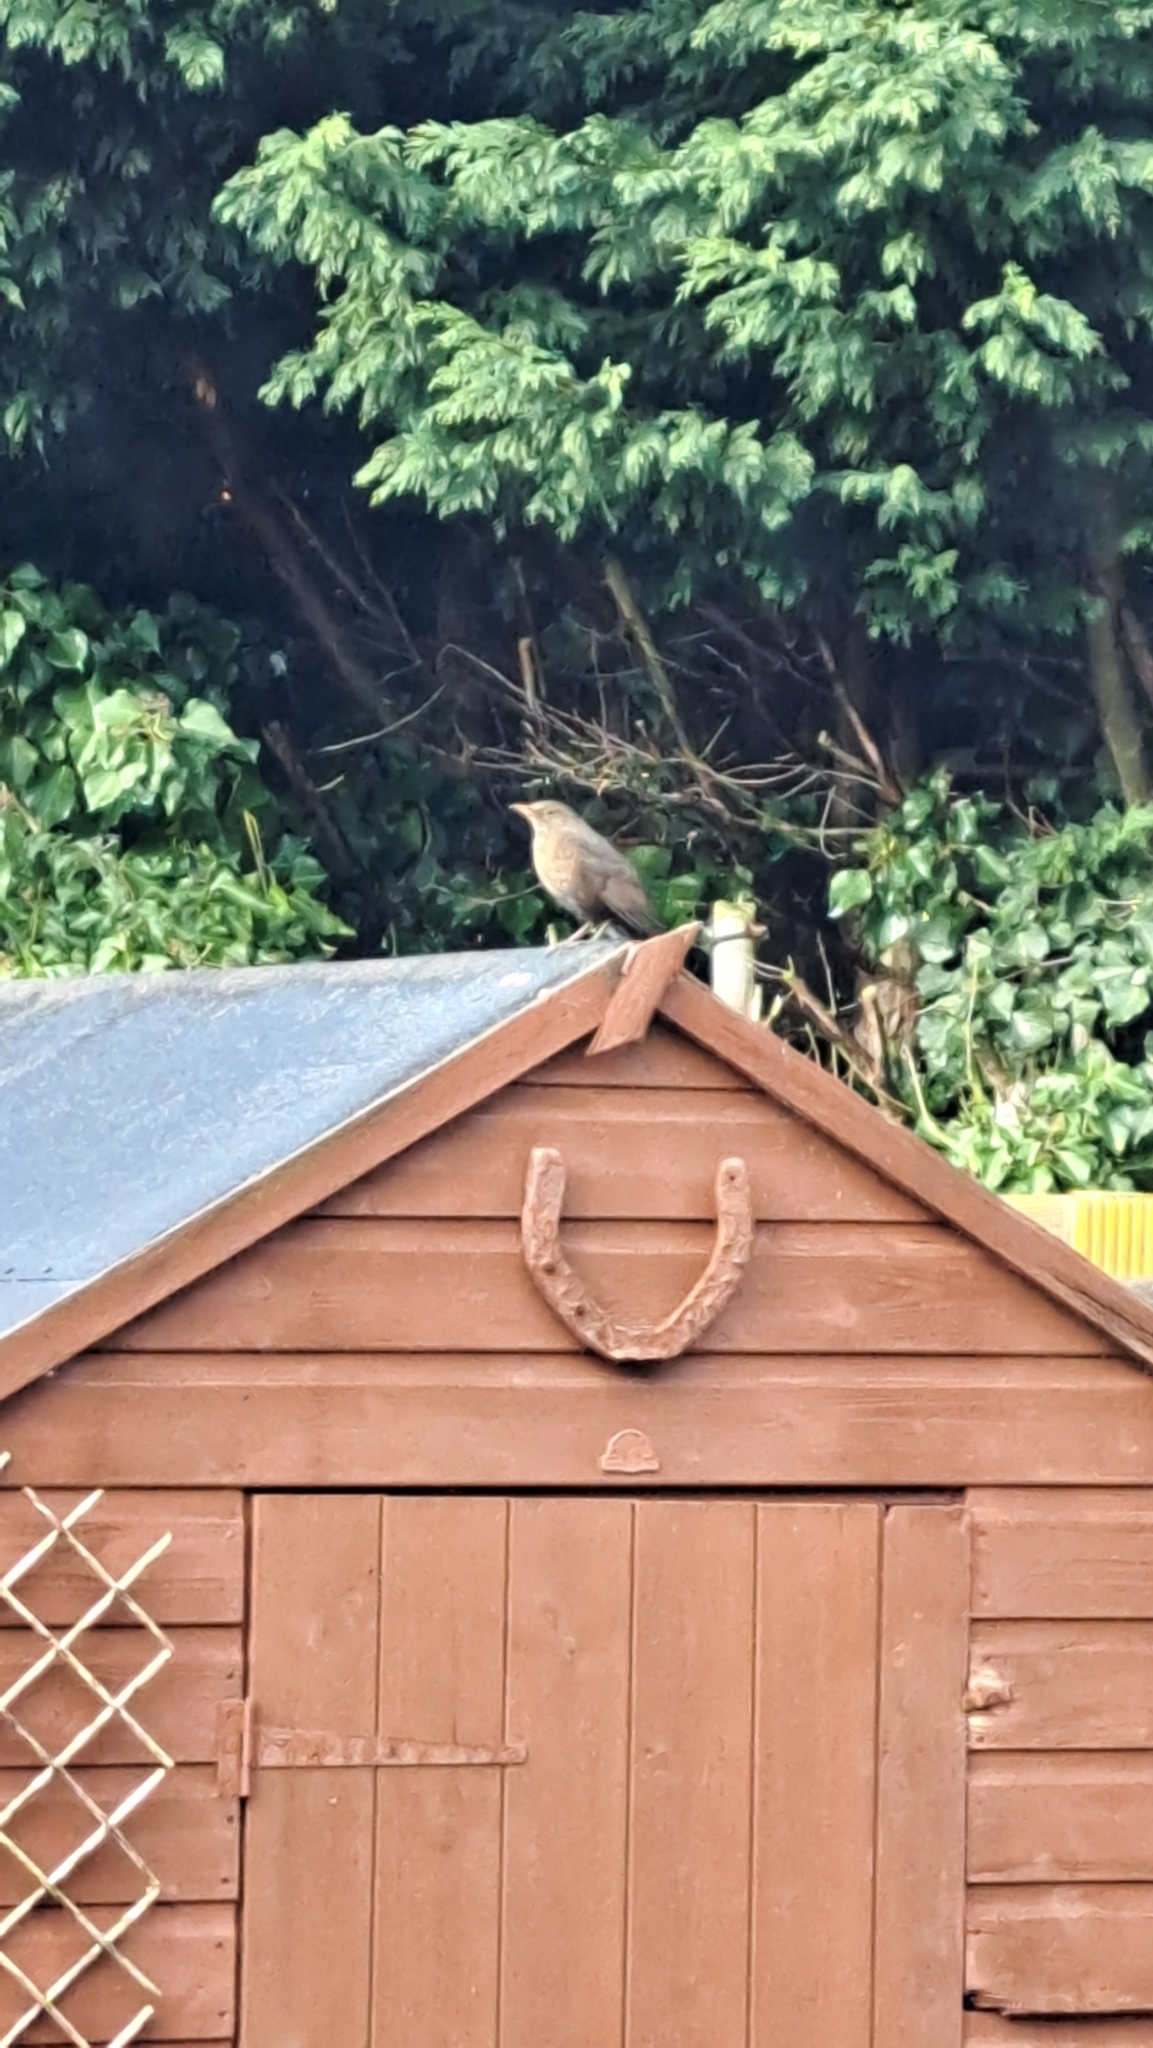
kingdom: Animalia
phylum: Chordata
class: Aves
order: Passeriformes
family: Turdidae
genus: Turdus
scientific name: Turdus merula
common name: Common blackbird
